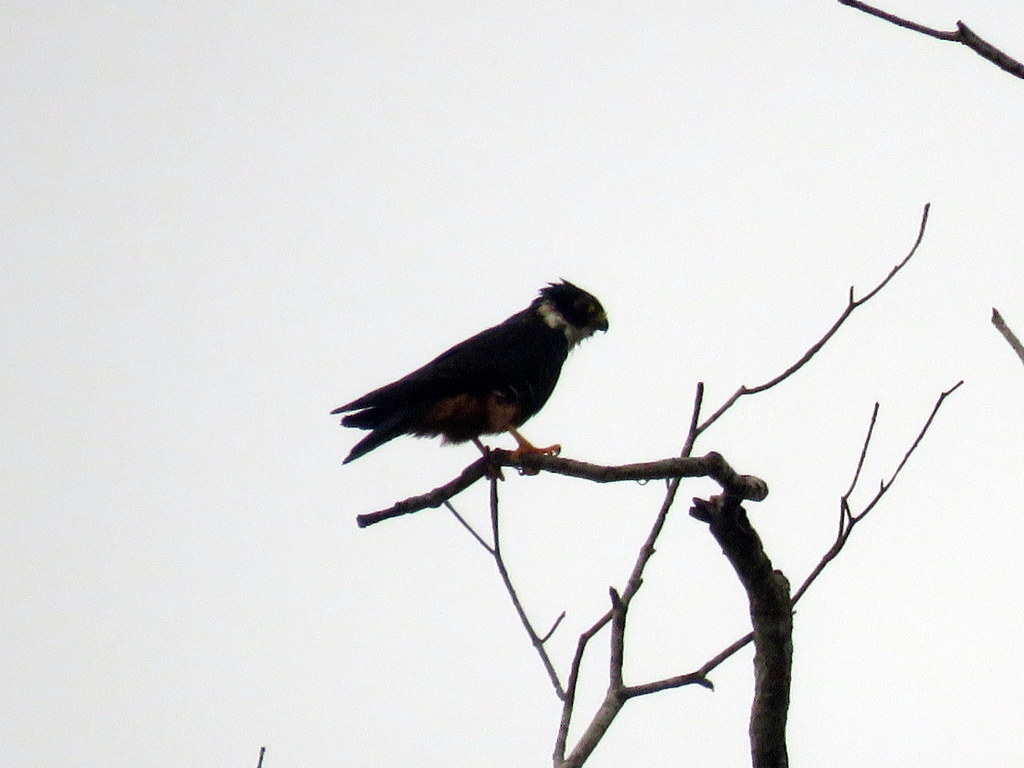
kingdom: Animalia
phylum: Chordata
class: Aves
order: Falconiformes
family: Falconidae
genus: Falco
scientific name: Falco rufigularis
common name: Bat falcon
